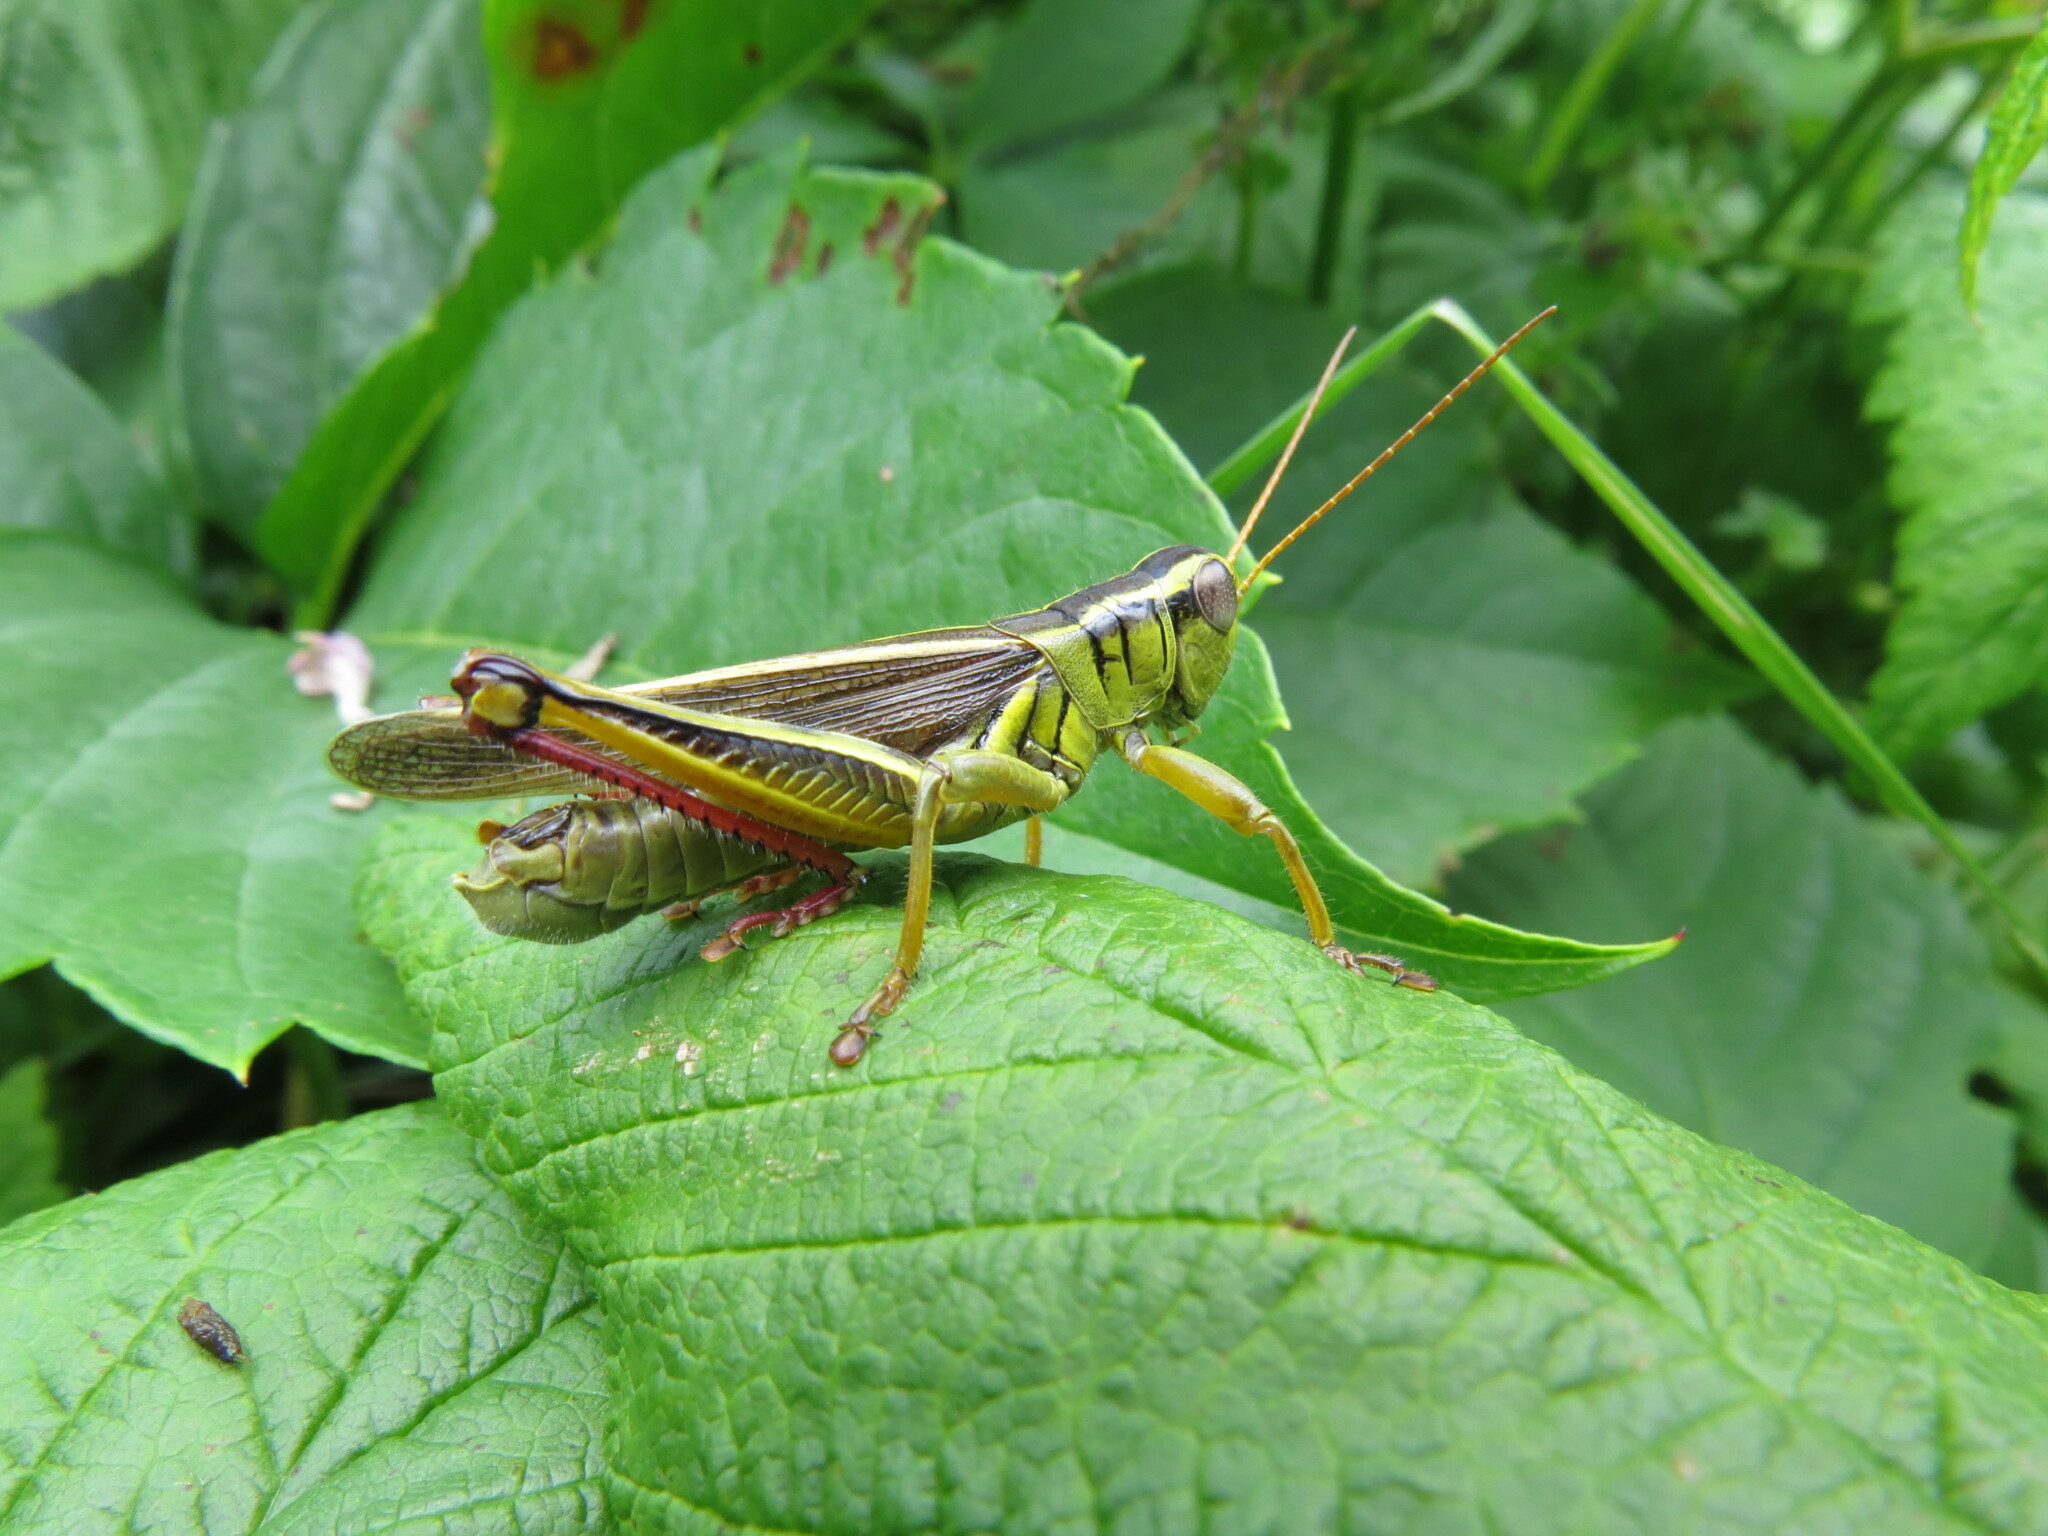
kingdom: Animalia
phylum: Arthropoda
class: Insecta
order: Orthoptera
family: Acrididae
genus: Melanoplus
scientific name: Melanoplus bivittatus
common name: Two-striped grasshopper
